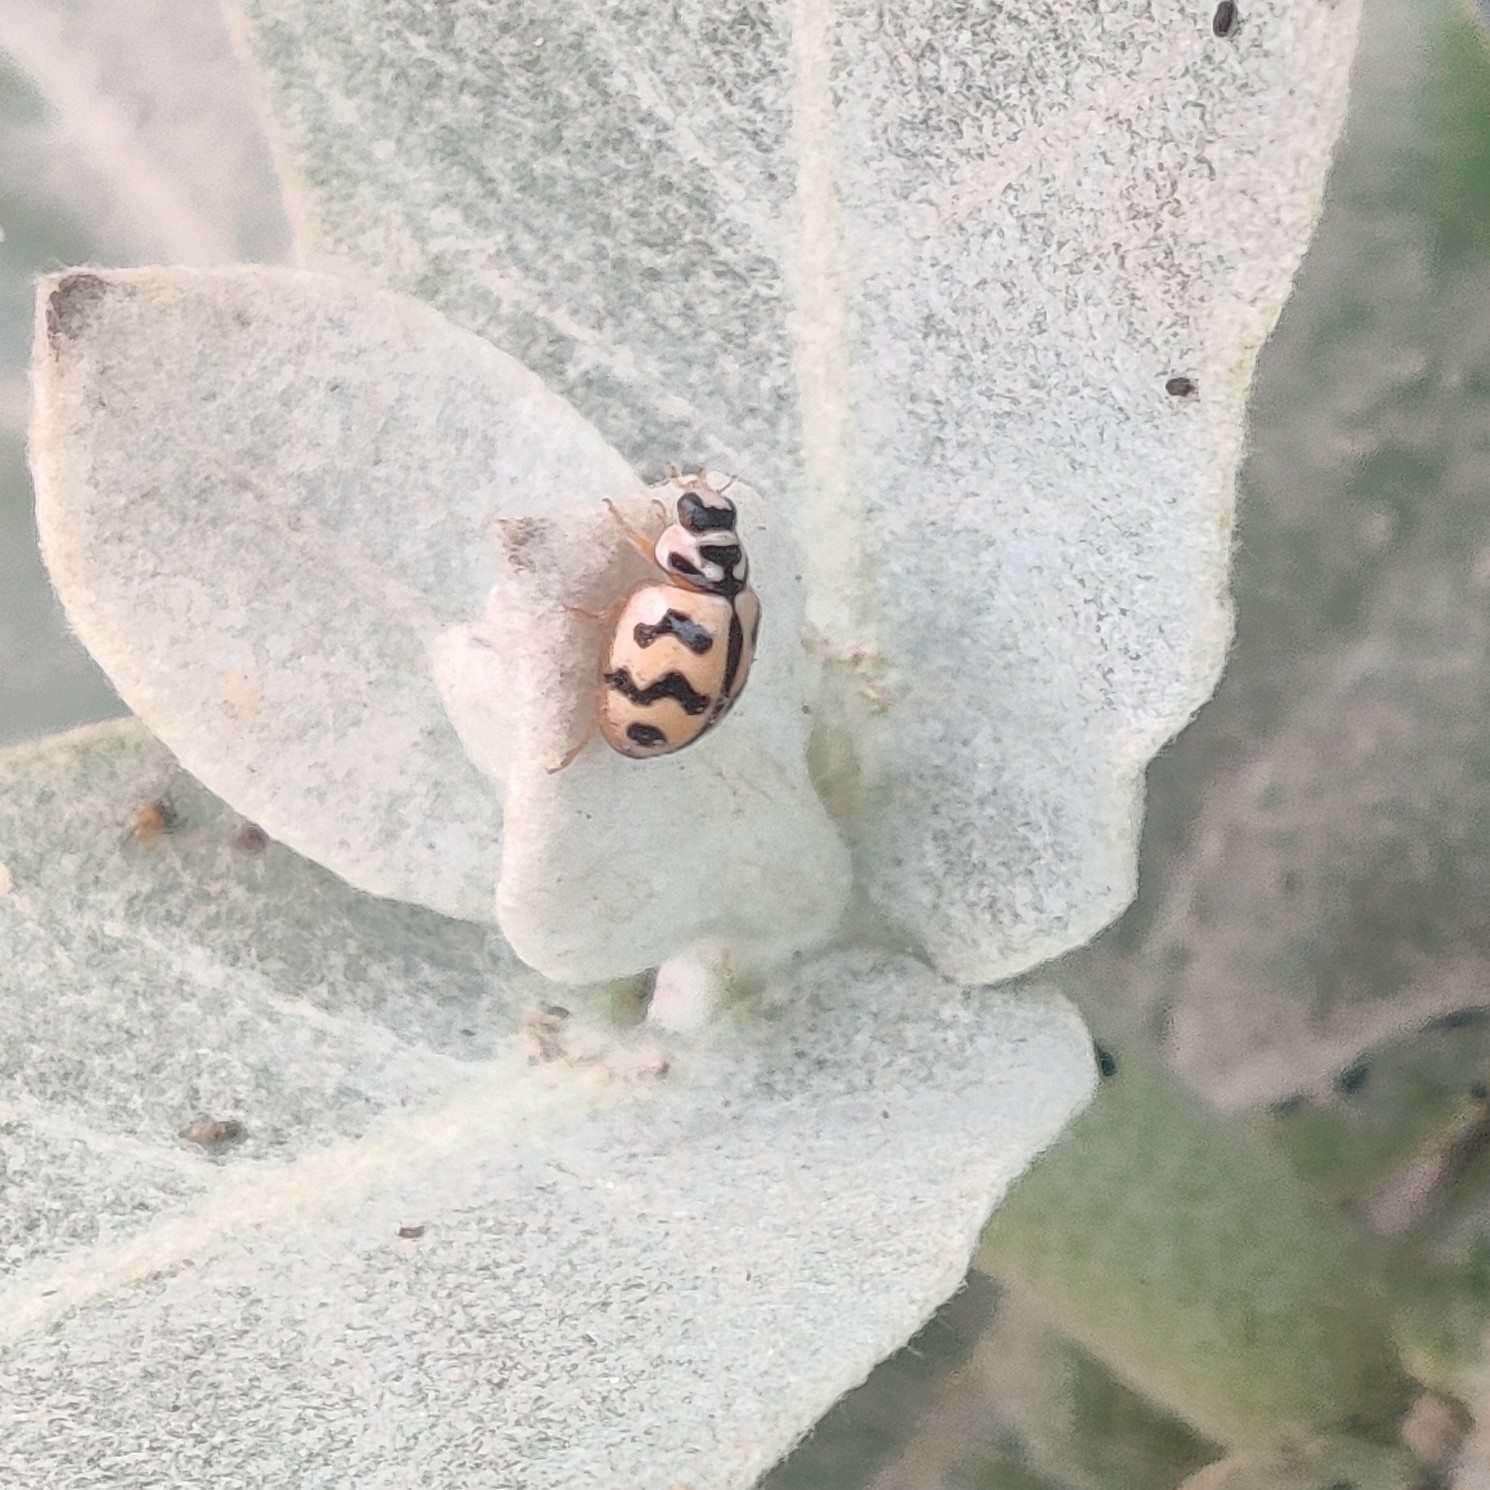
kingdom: Animalia
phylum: Arthropoda
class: Insecta
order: Coleoptera
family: Coccinellidae
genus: Cheilomenes
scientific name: Cheilomenes sexmaculata
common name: Ladybird beetle
